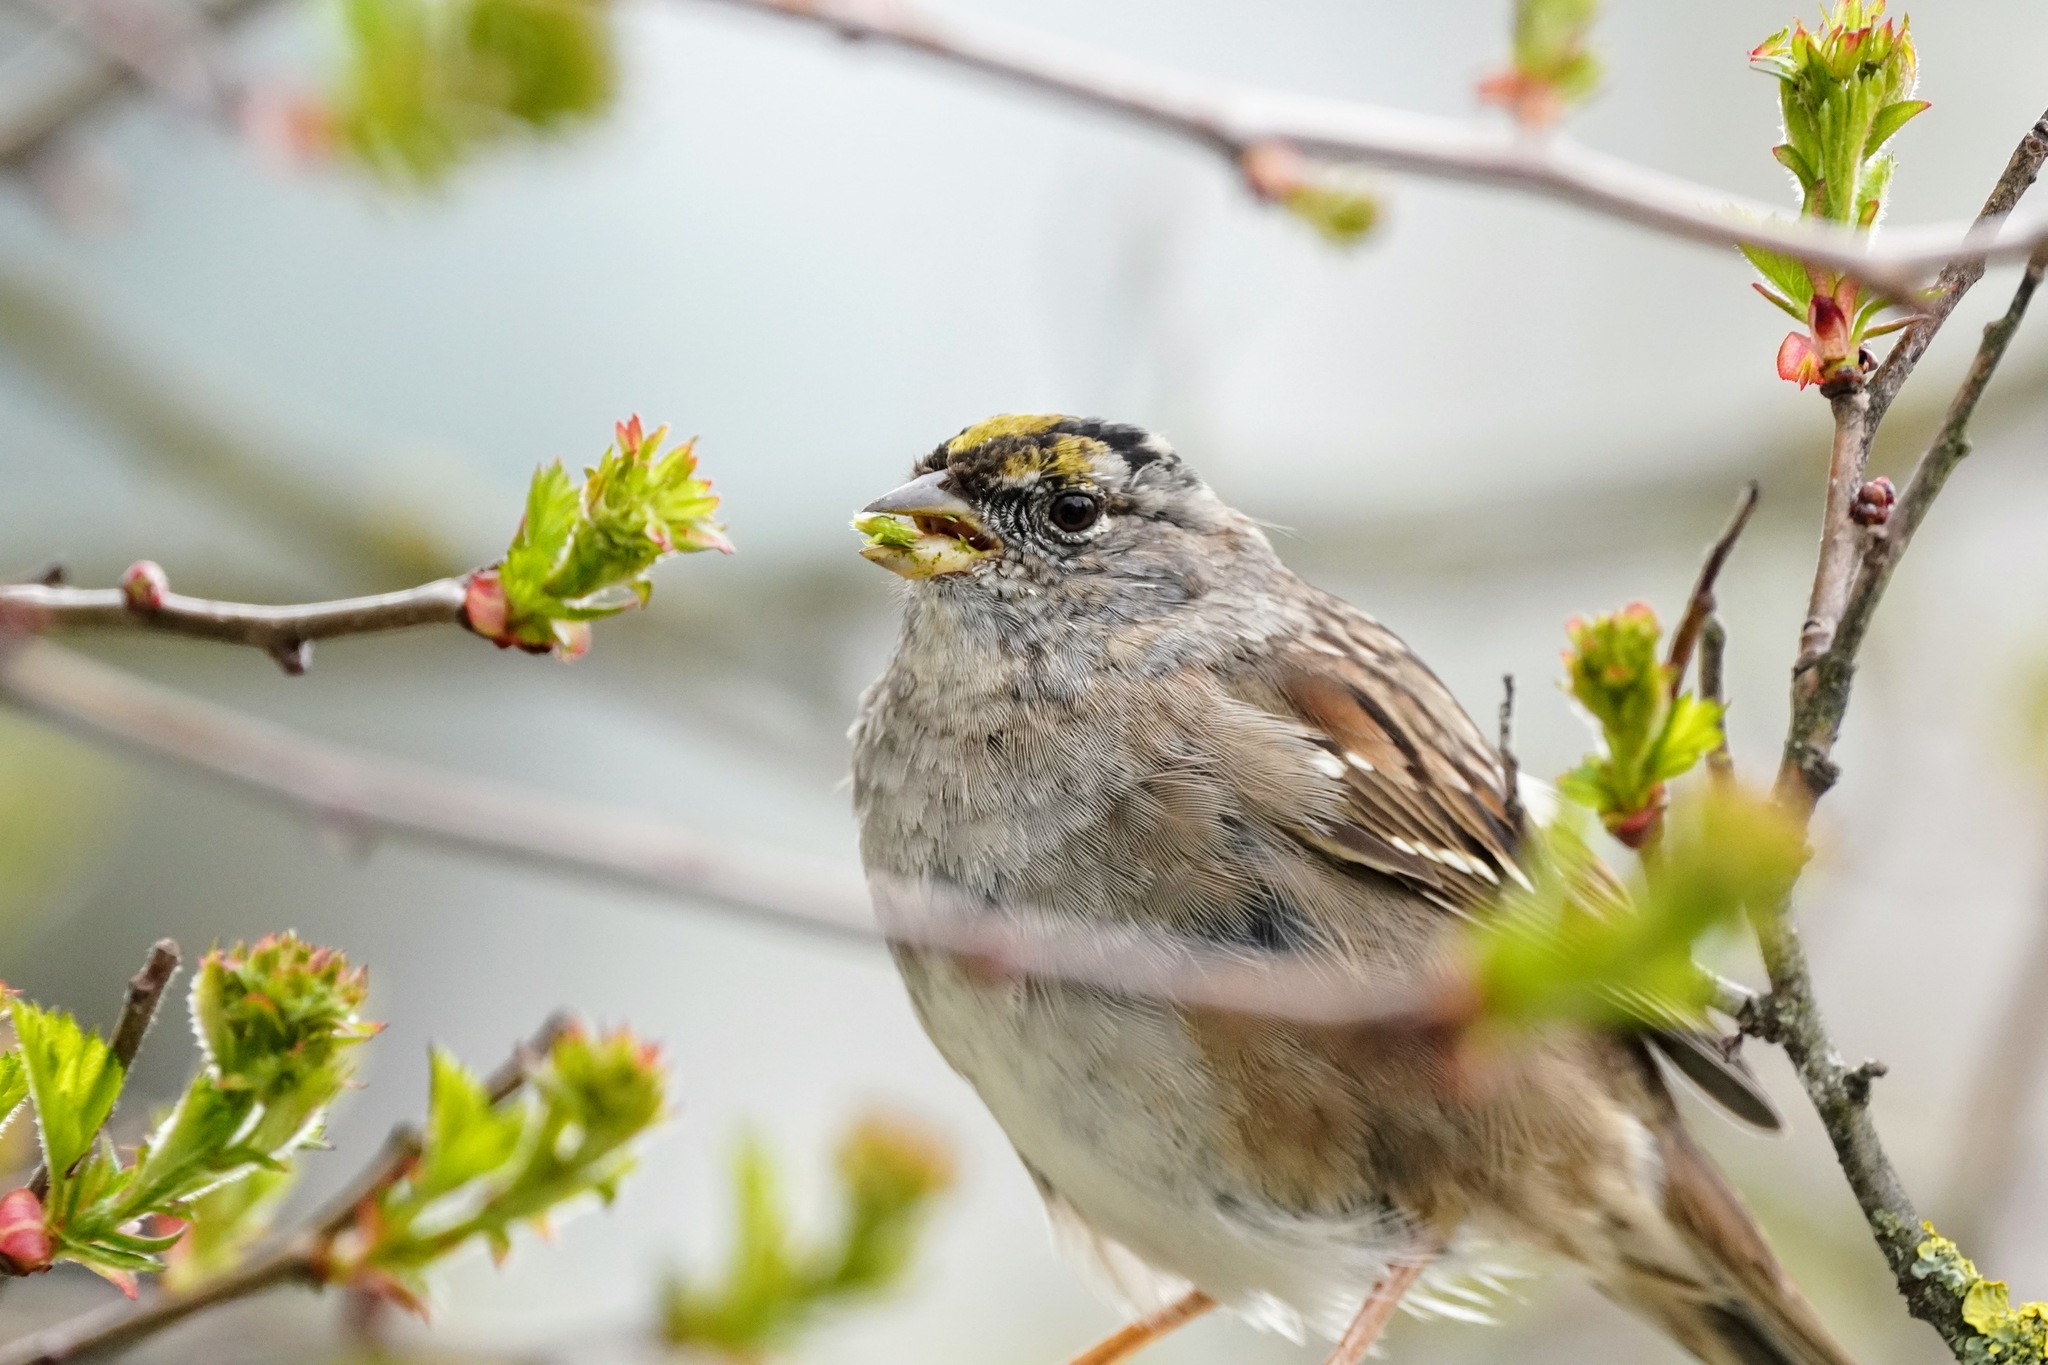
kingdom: Animalia
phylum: Chordata
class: Aves
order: Passeriformes
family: Passerellidae
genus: Zonotrichia
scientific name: Zonotrichia atricapilla
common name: Golden-crowned sparrow
